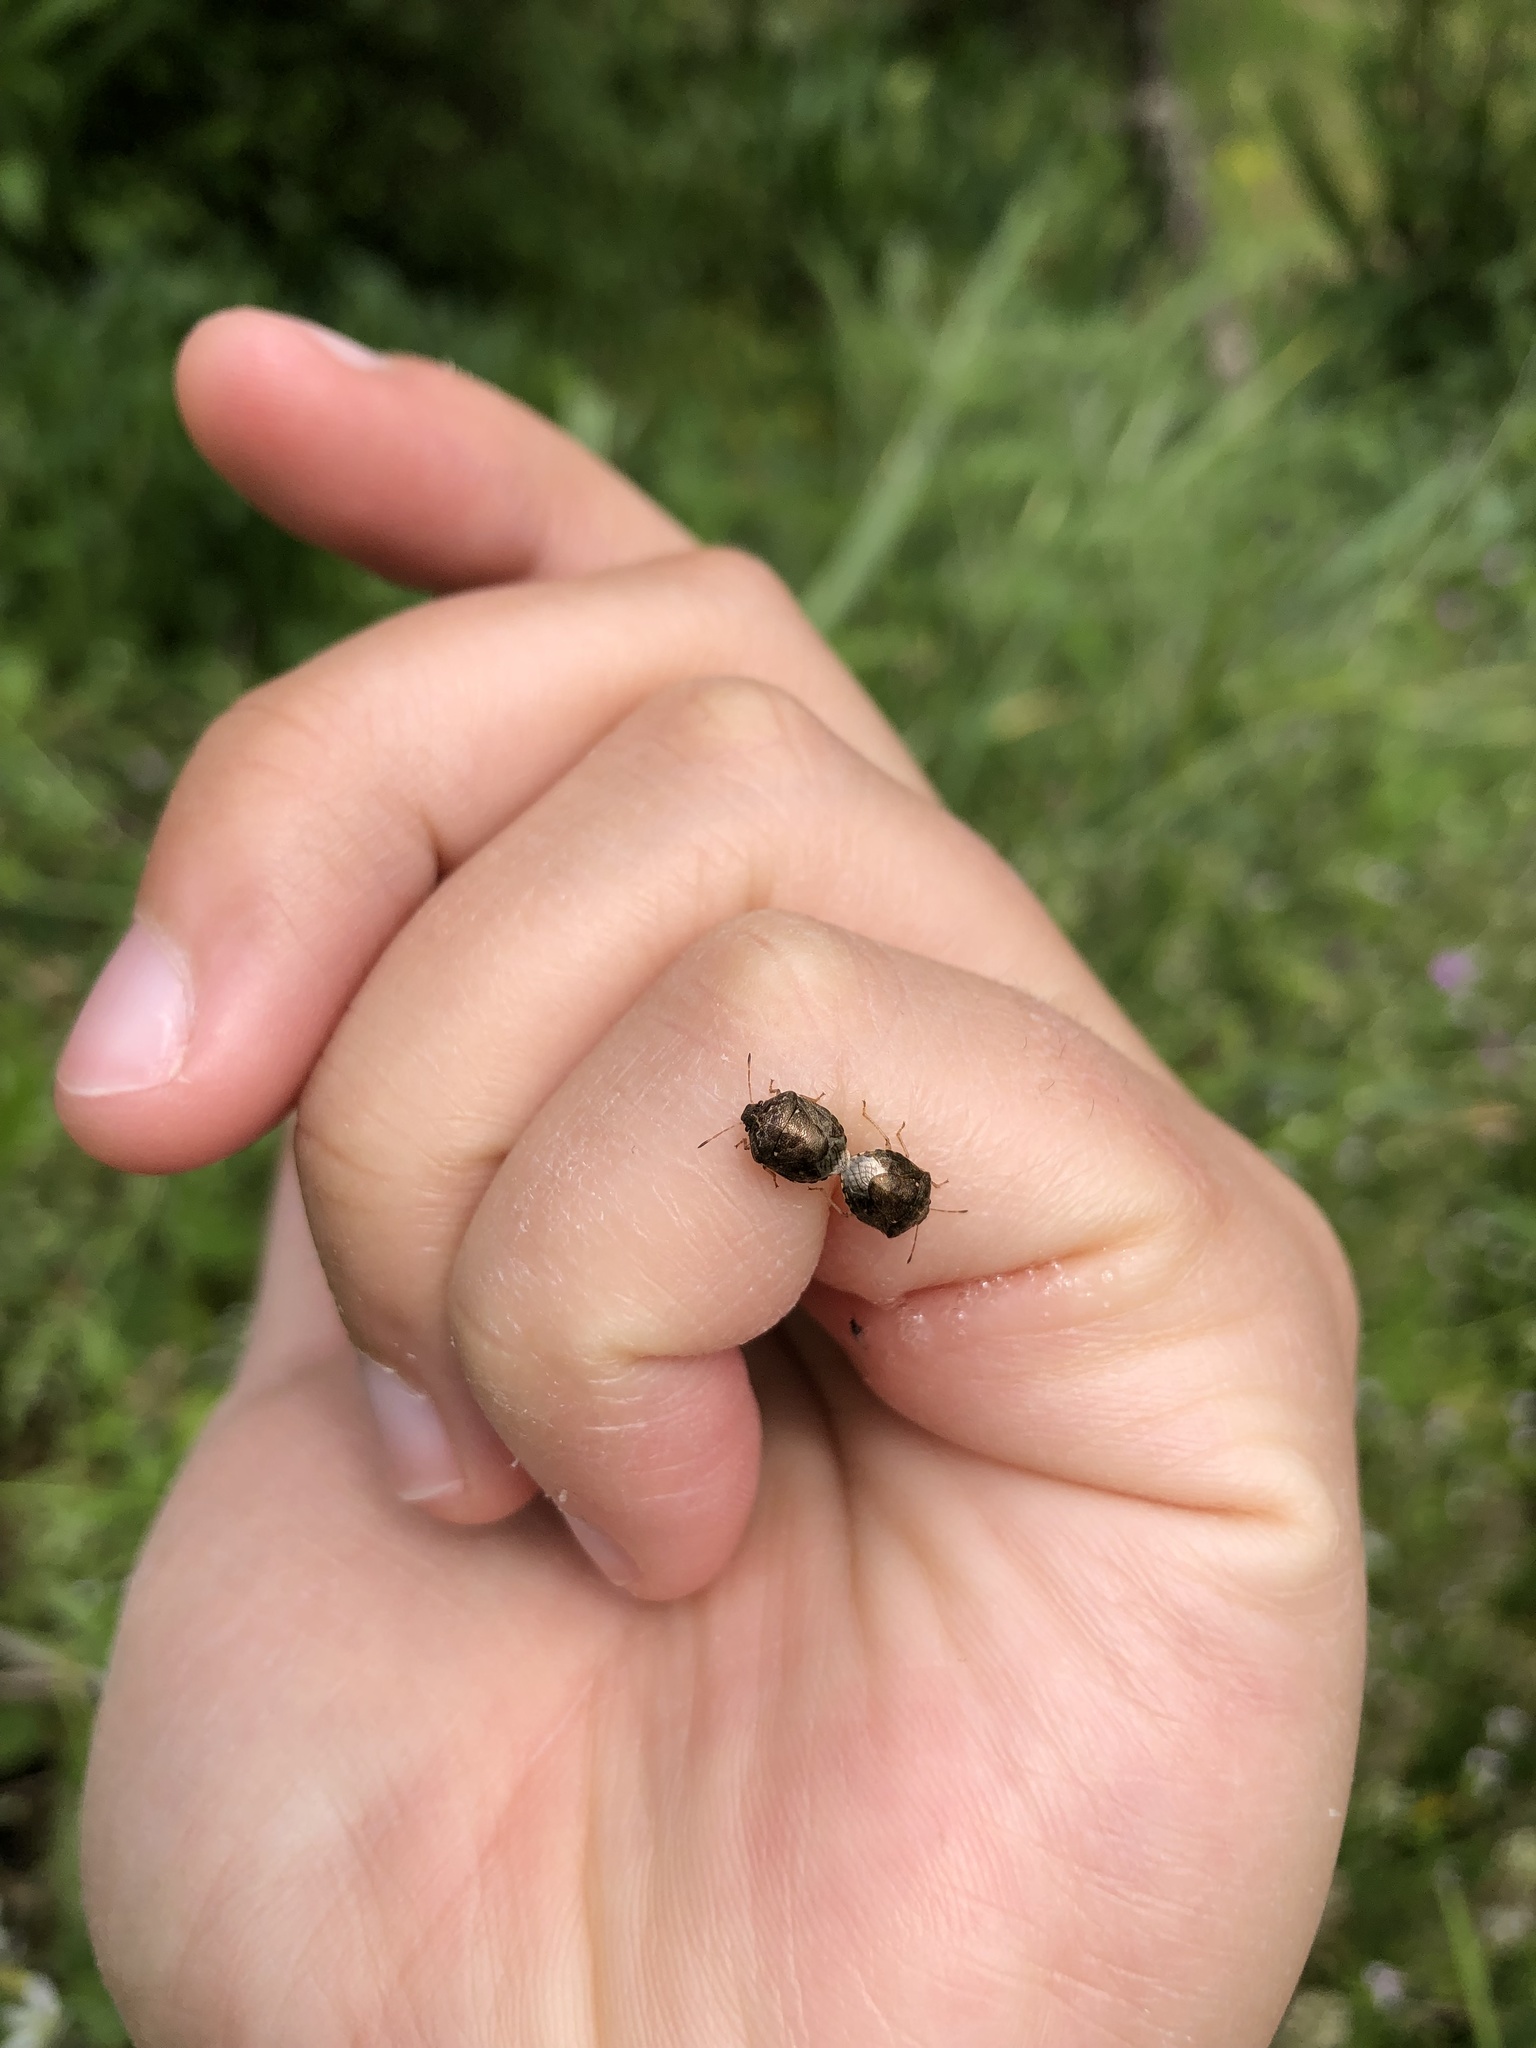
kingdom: Animalia
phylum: Arthropoda
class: Insecta
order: Hemiptera
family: Pentatomidae
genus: Cosmopepla
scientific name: Cosmopepla intergressus
